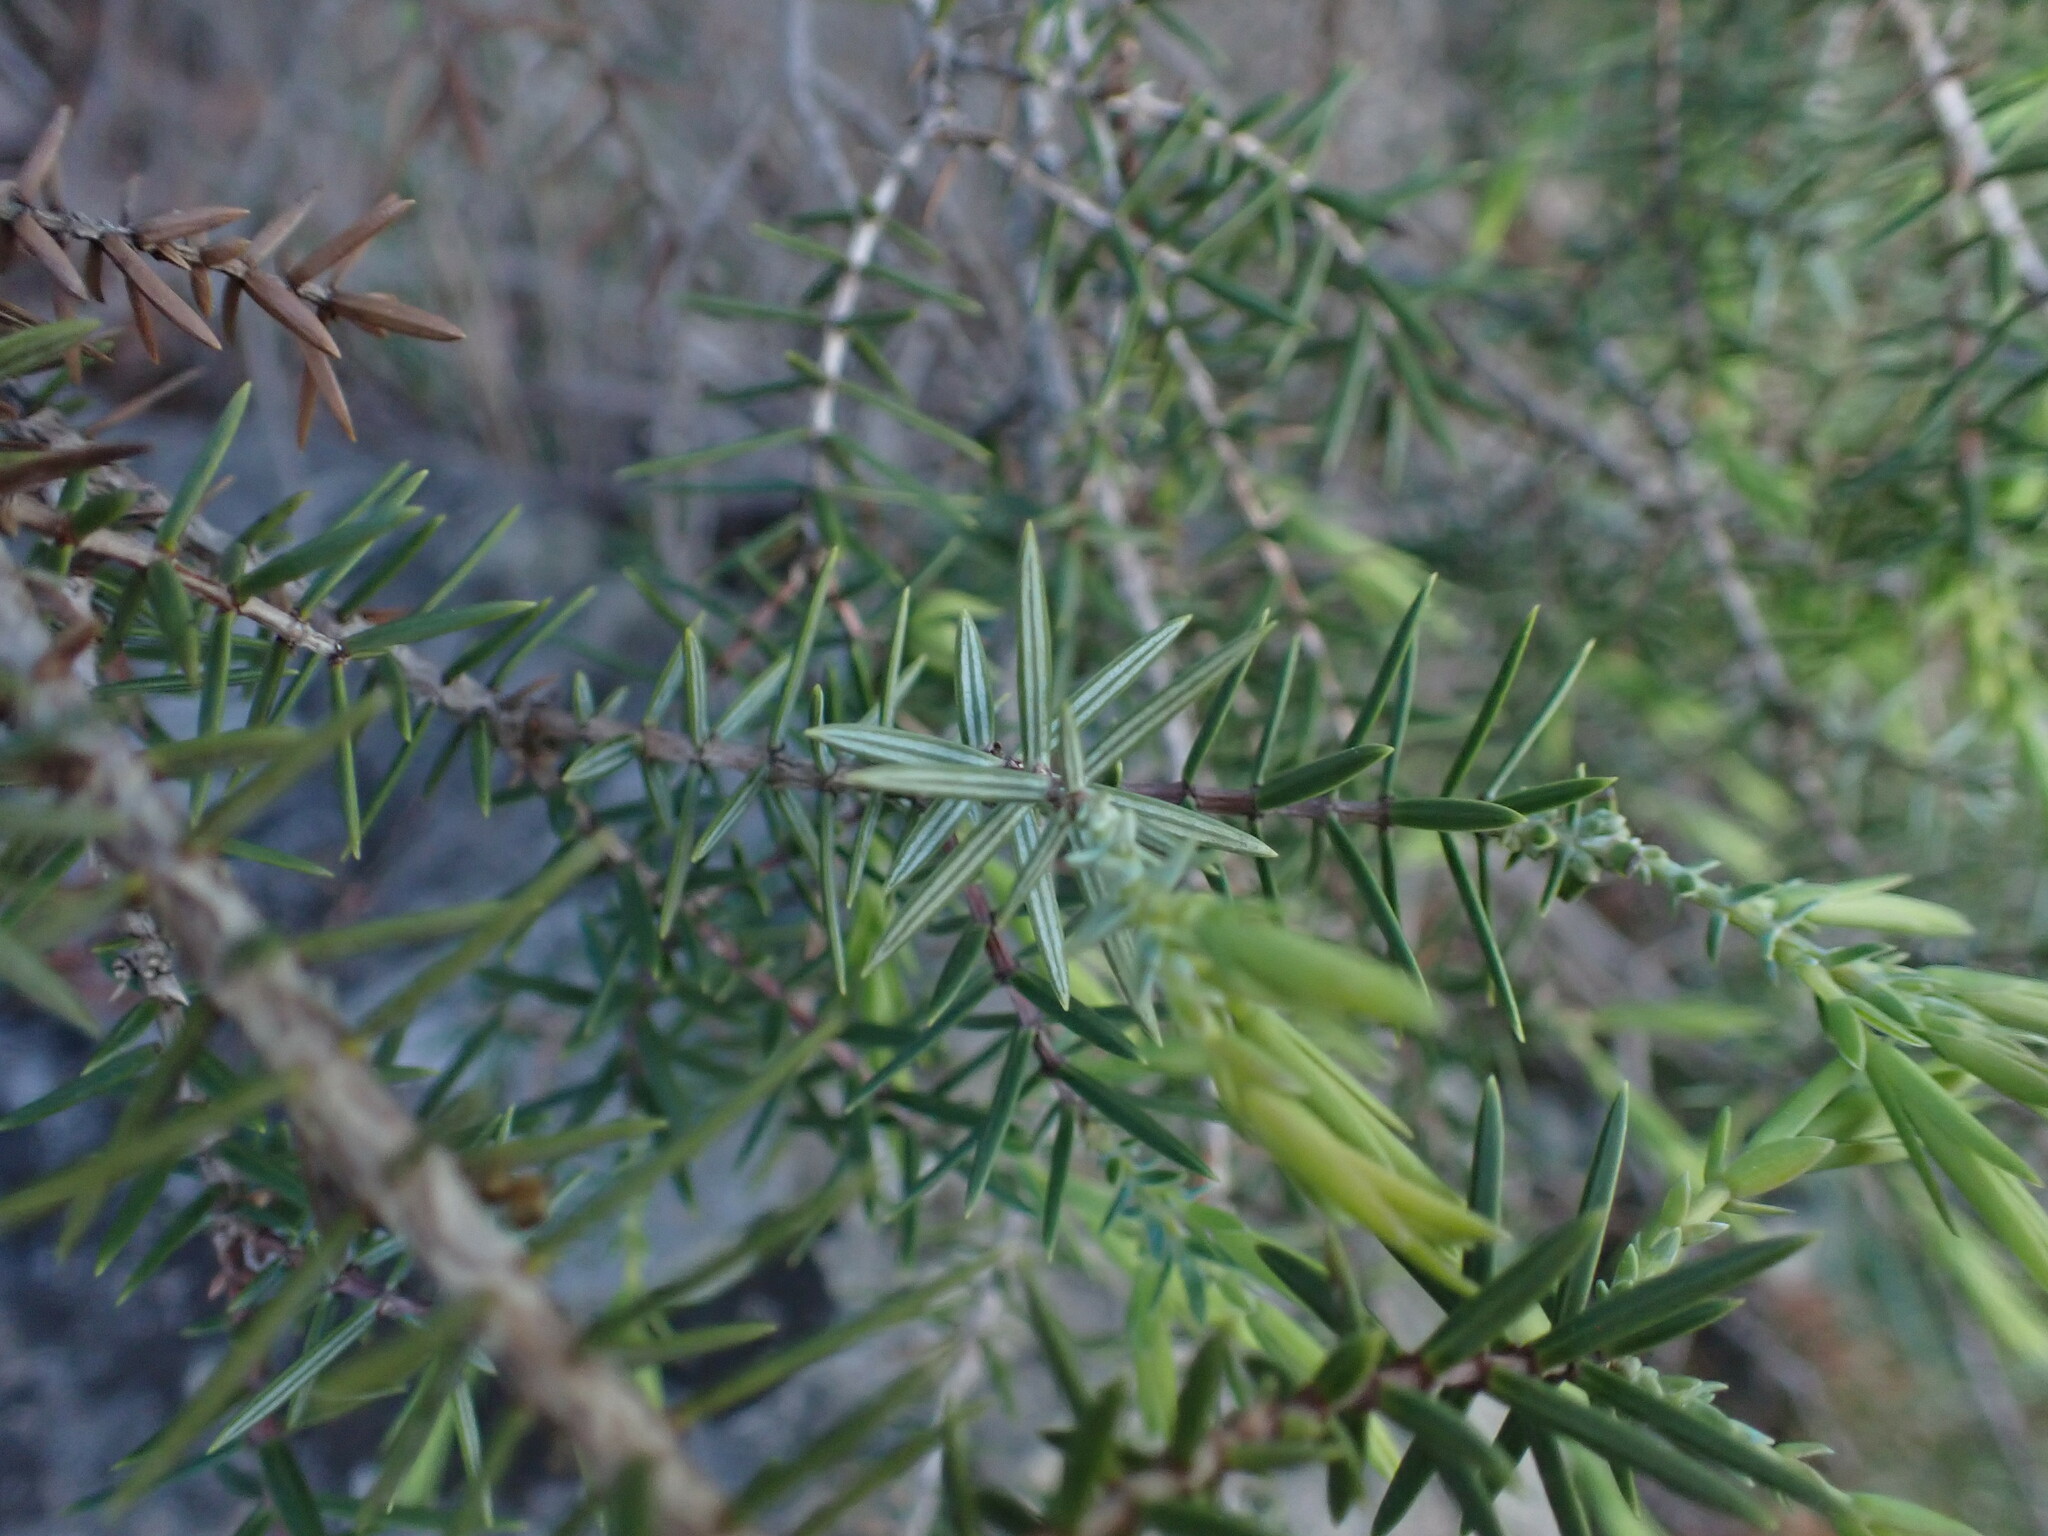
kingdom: Plantae
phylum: Tracheophyta
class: Pinopsida
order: Pinales
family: Cupressaceae
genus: Juniperus
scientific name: Juniperus oxycedrus
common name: Prickly juniper
